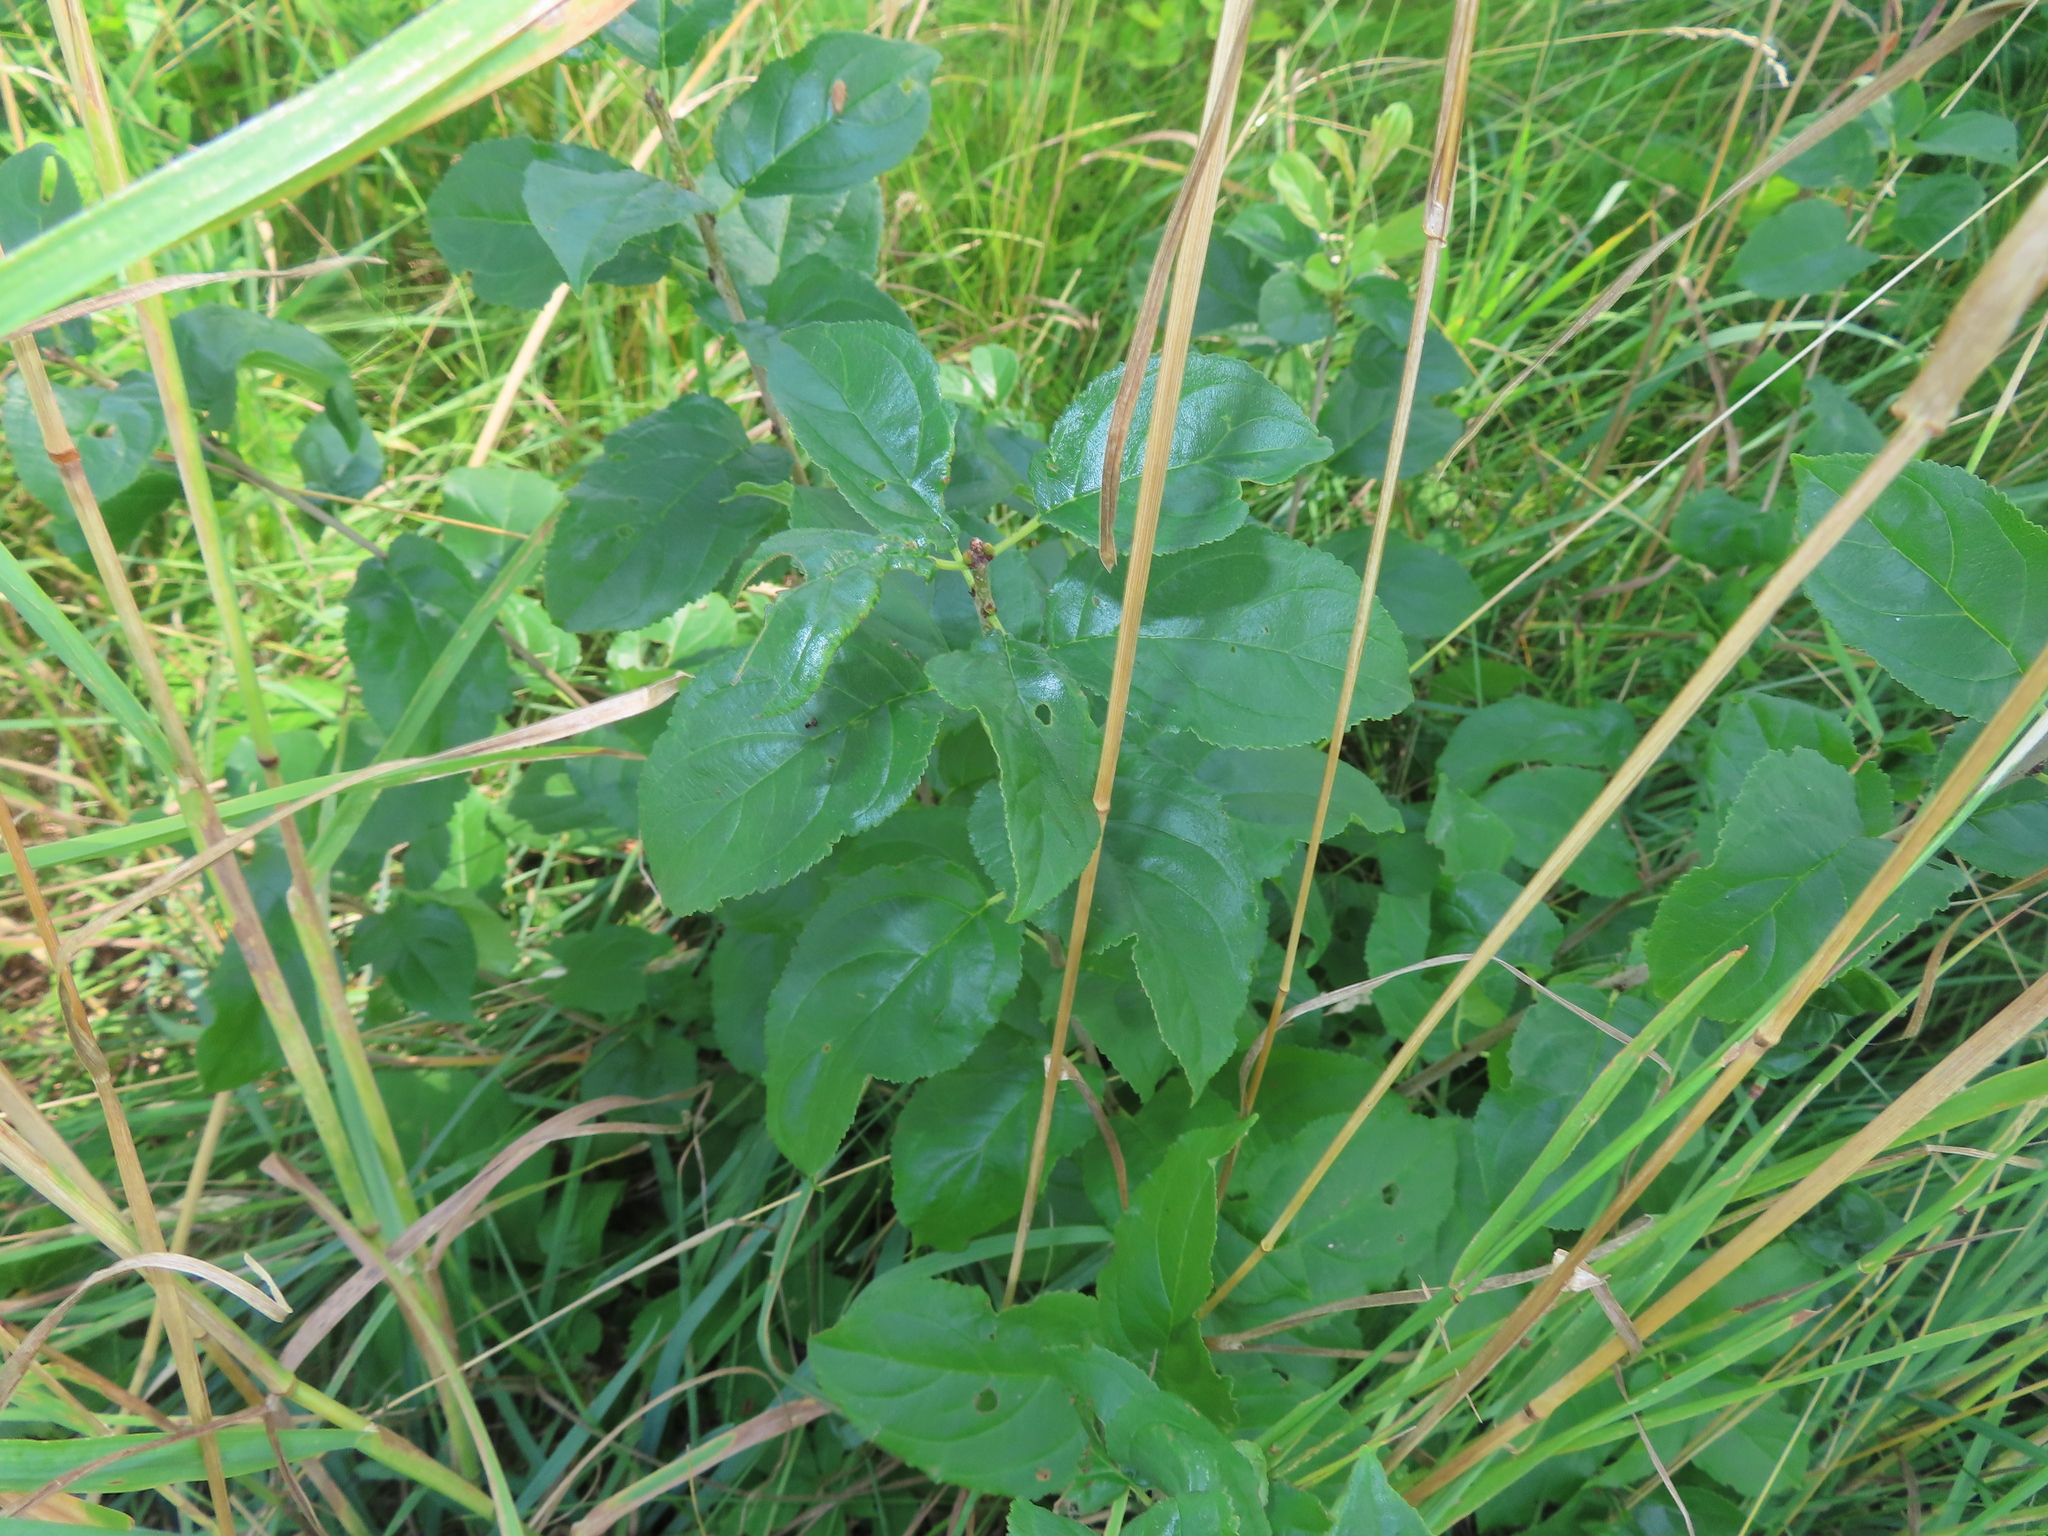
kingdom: Plantae
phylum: Tracheophyta
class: Magnoliopsida
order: Rosales
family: Rhamnaceae
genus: Rhamnus
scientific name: Rhamnus cathartica
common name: Common buckthorn
